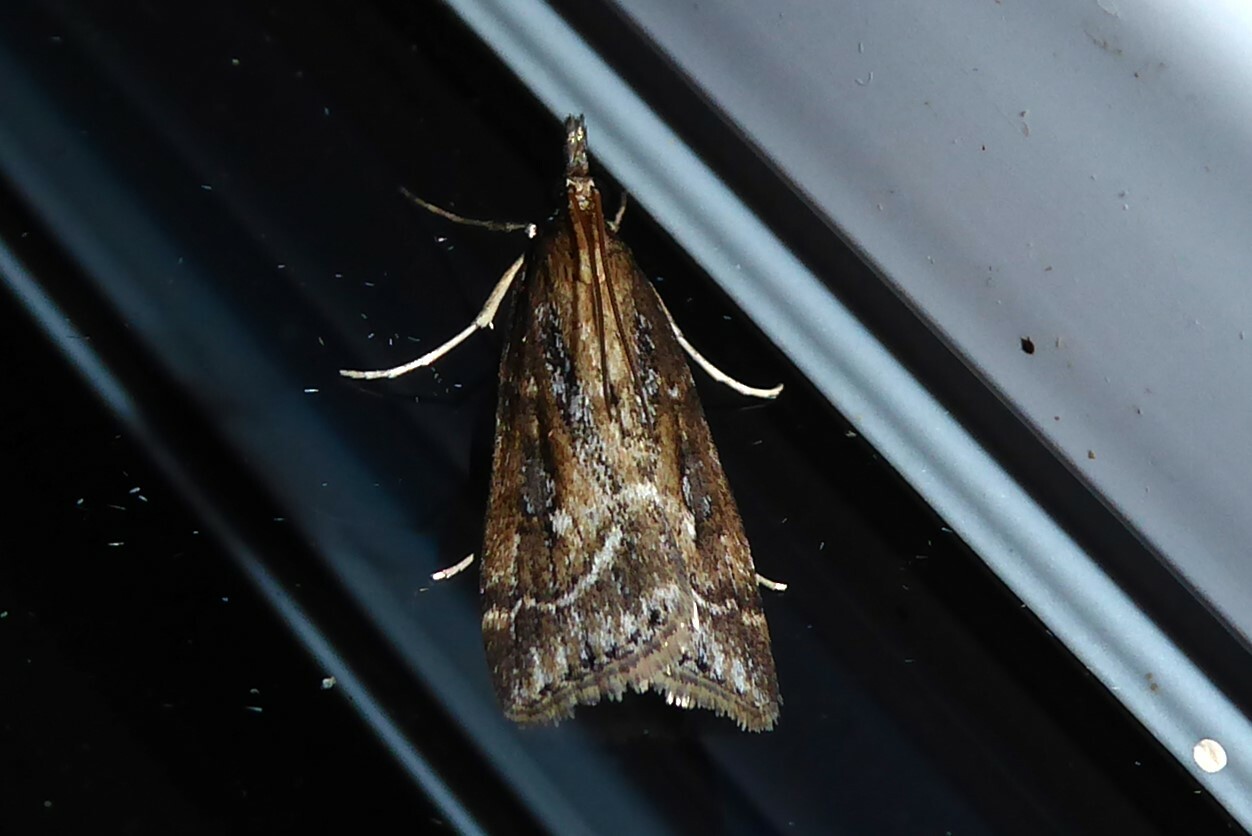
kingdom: Animalia
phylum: Arthropoda
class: Insecta
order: Lepidoptera
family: Crambidae
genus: Eudonia
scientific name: Eudonia octophora
